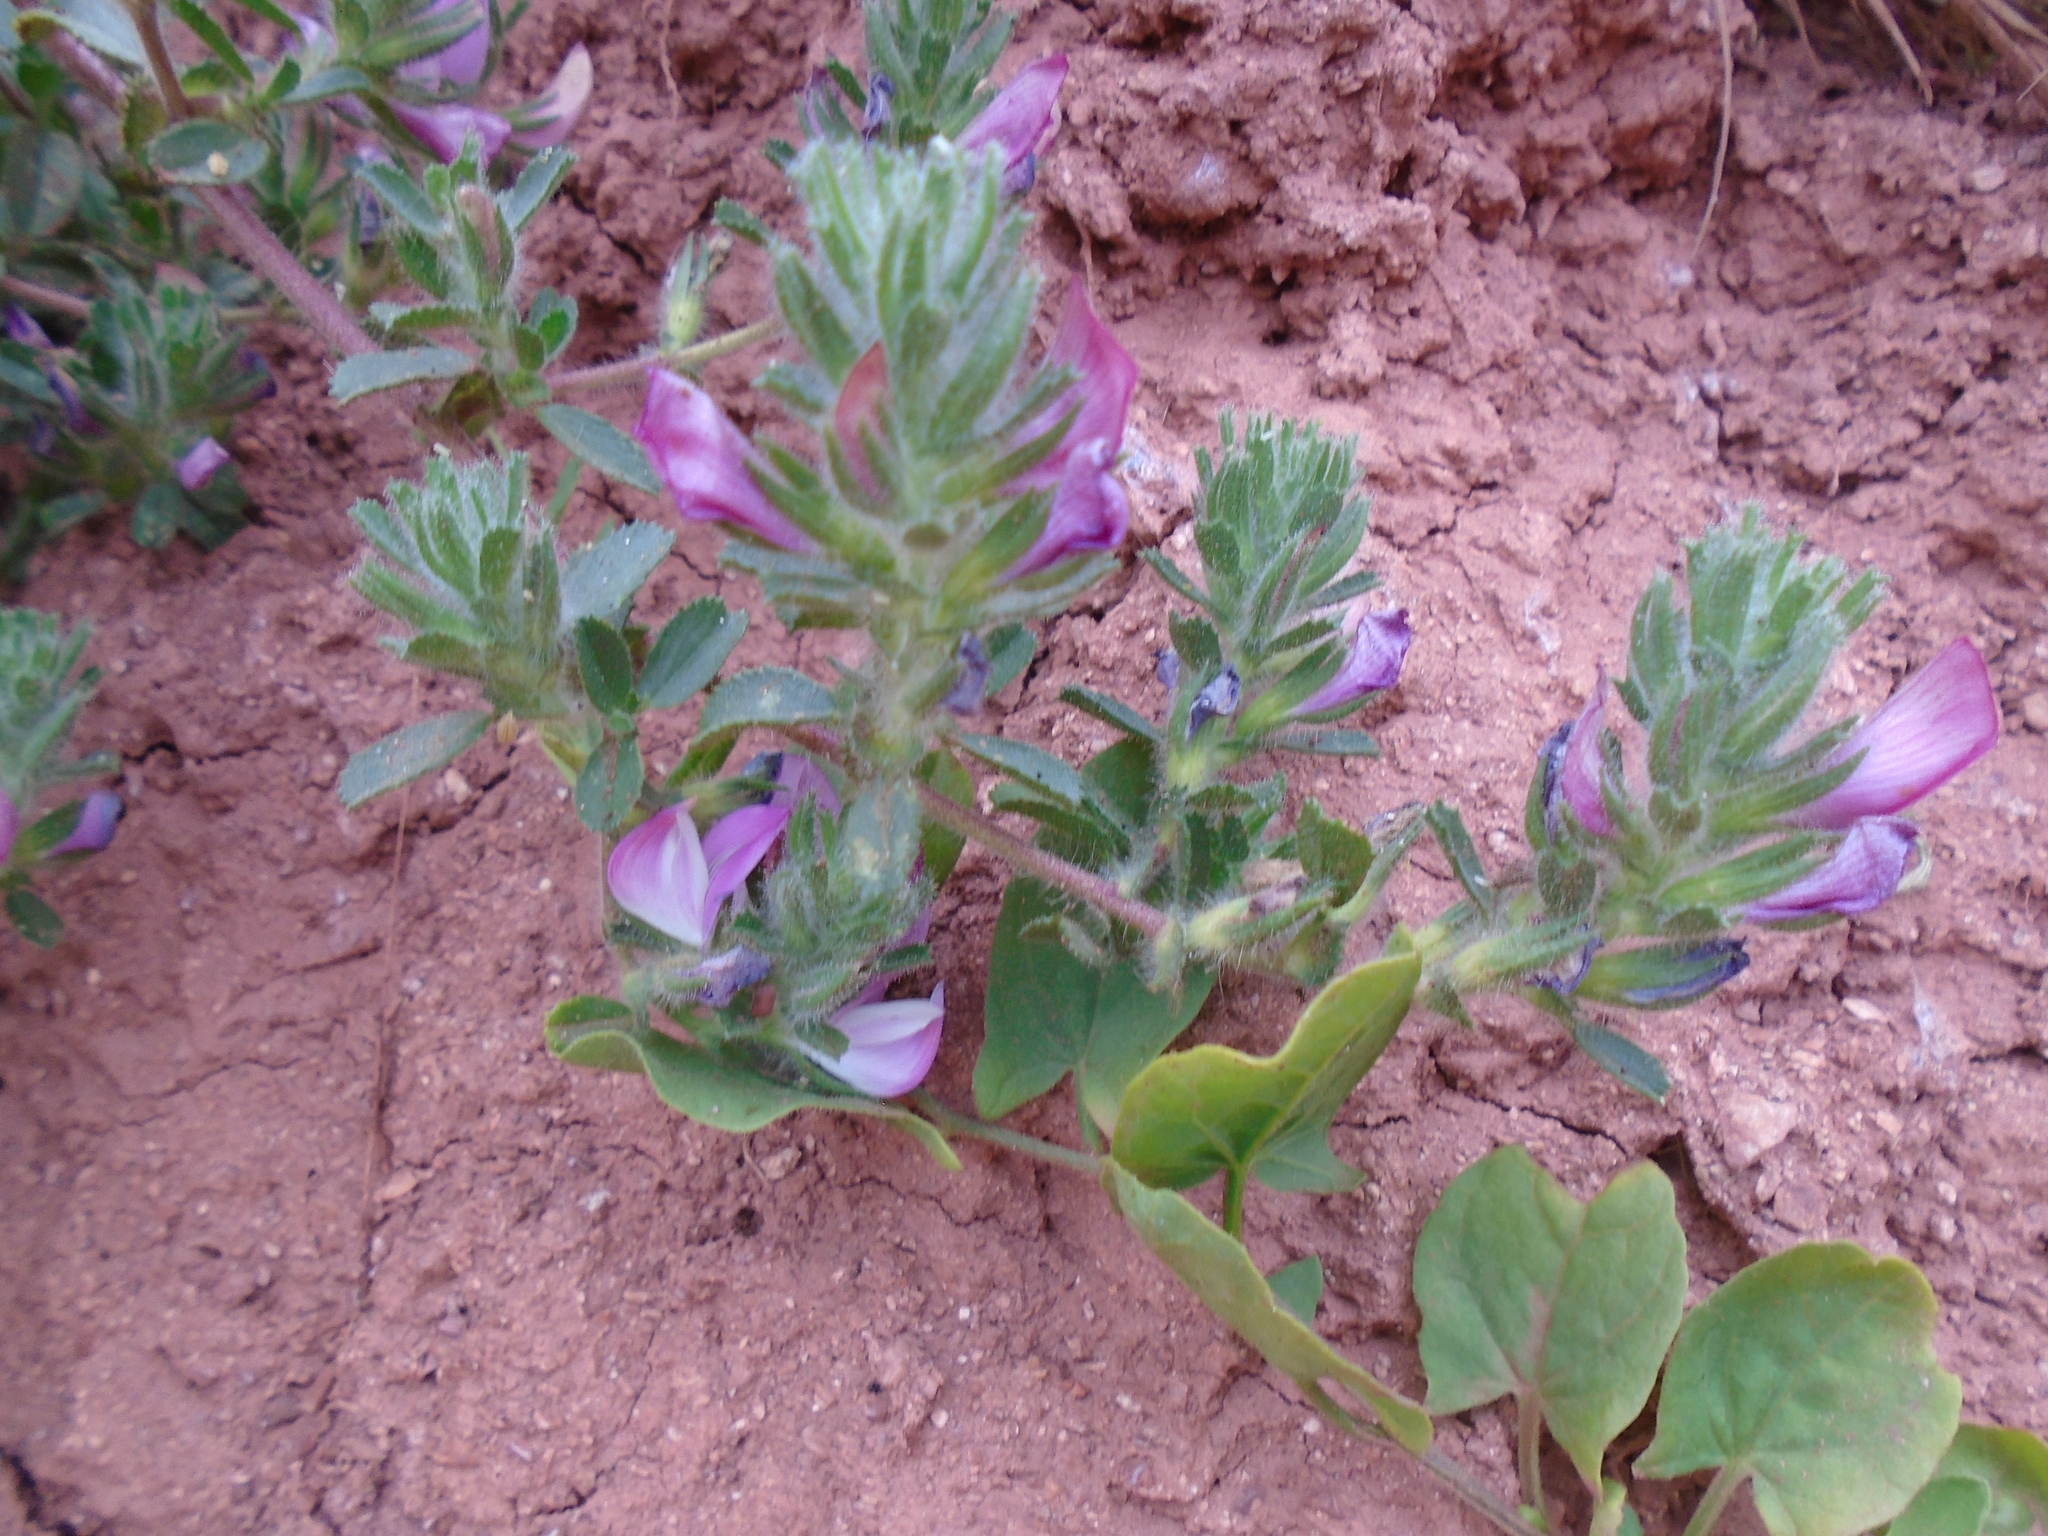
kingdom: Plantae
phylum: Tracheophyta
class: Magnoliopsida
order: Fabales
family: Fabaceae
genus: Ononis
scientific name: Ononis spinosa
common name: Spiny restharrow
